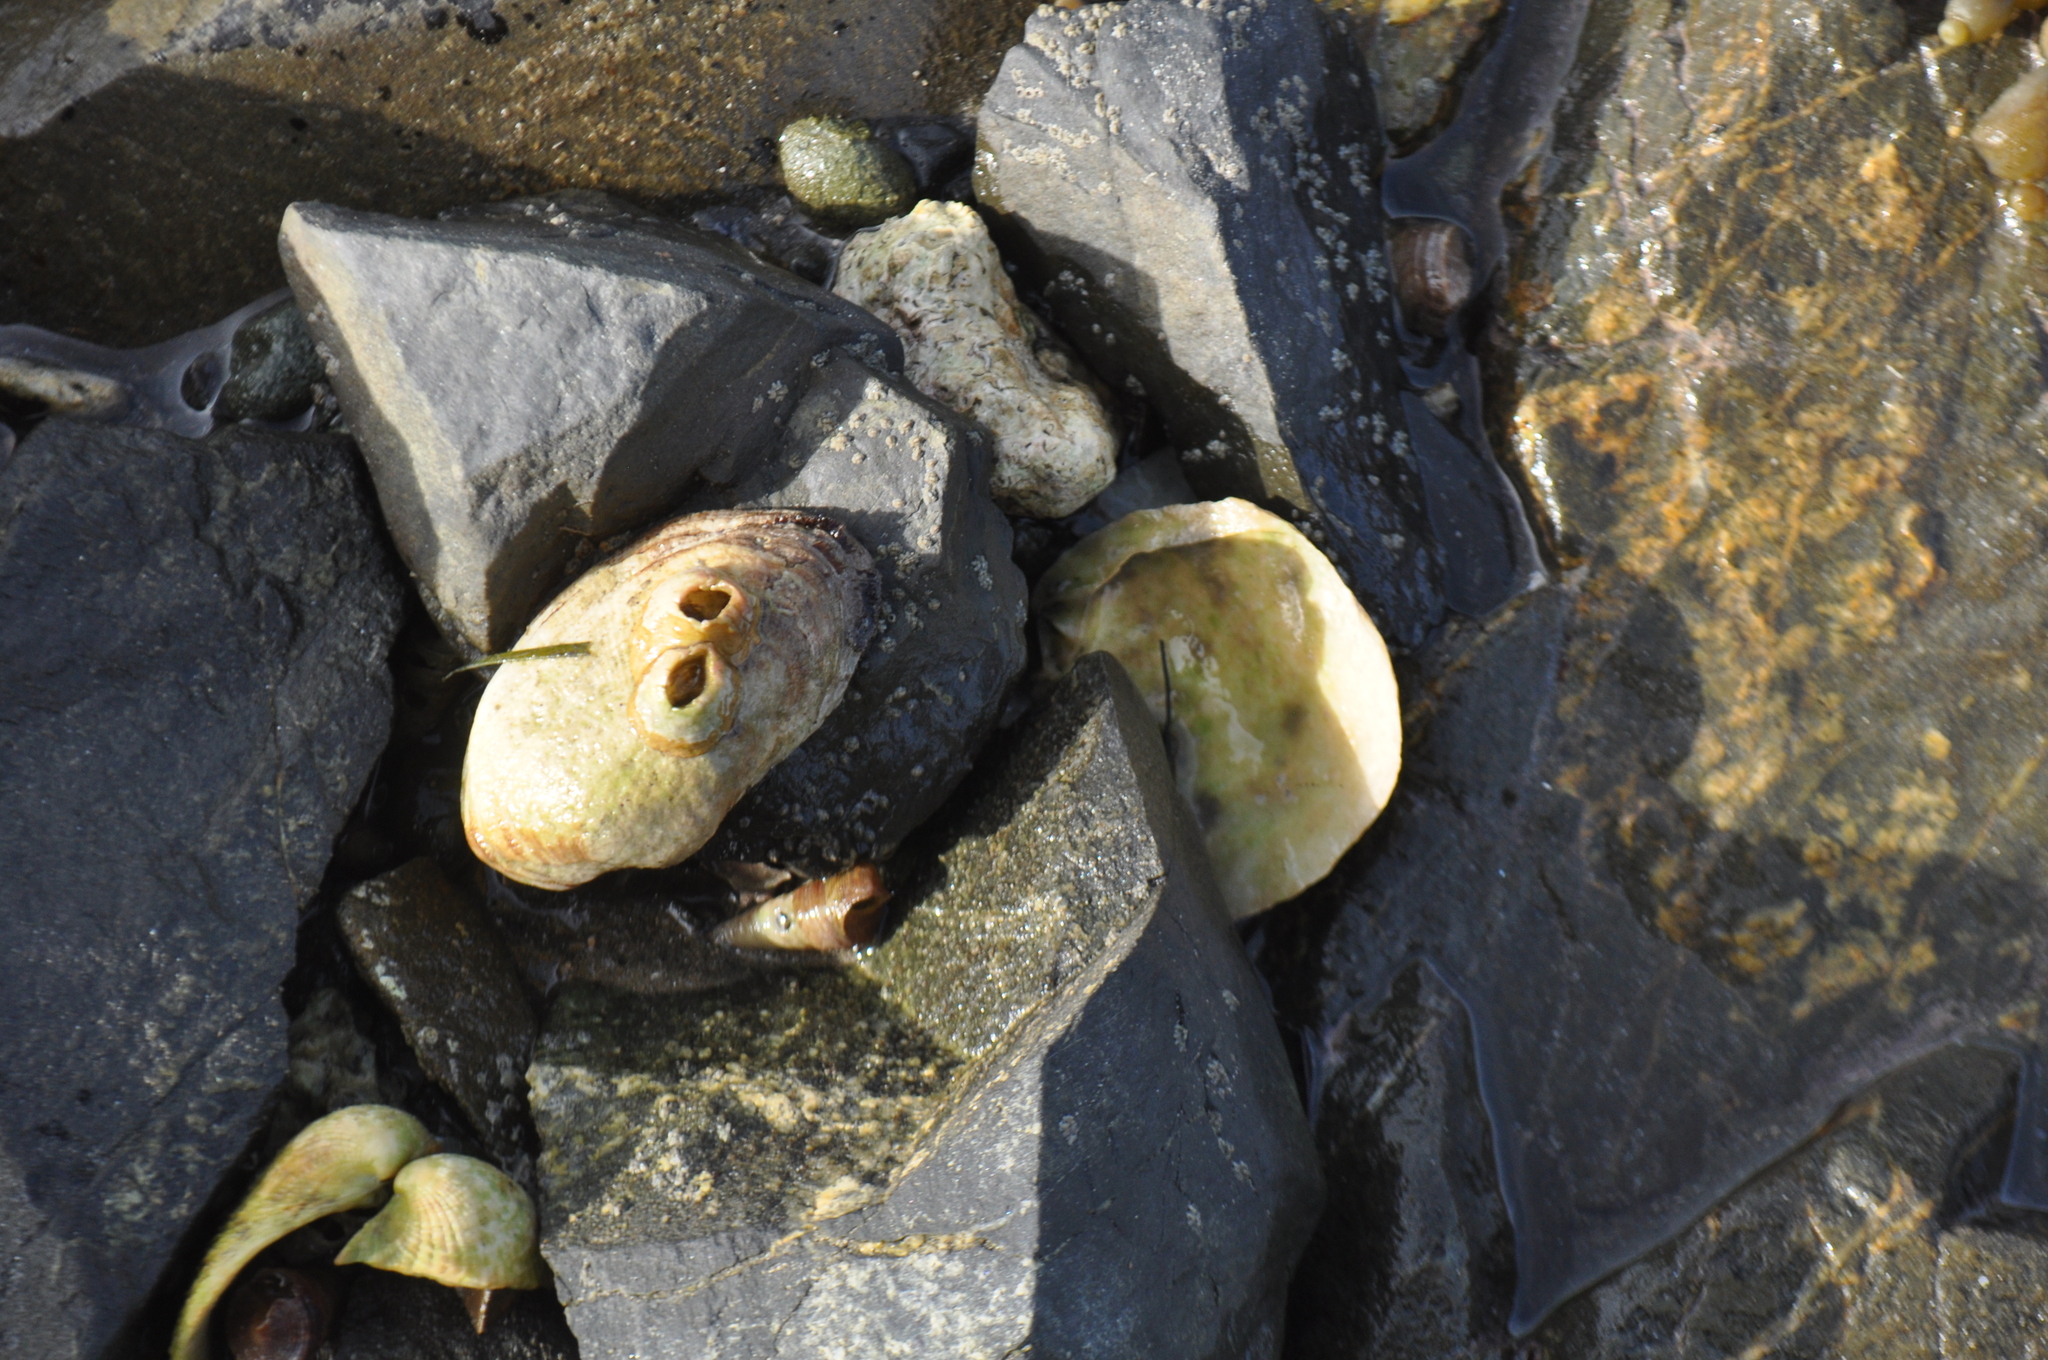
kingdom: Animalia
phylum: Mollusca
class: Bivalvia
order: Arcida
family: Arcidae
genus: Barbatia
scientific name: Barbatia novaezealandiae
